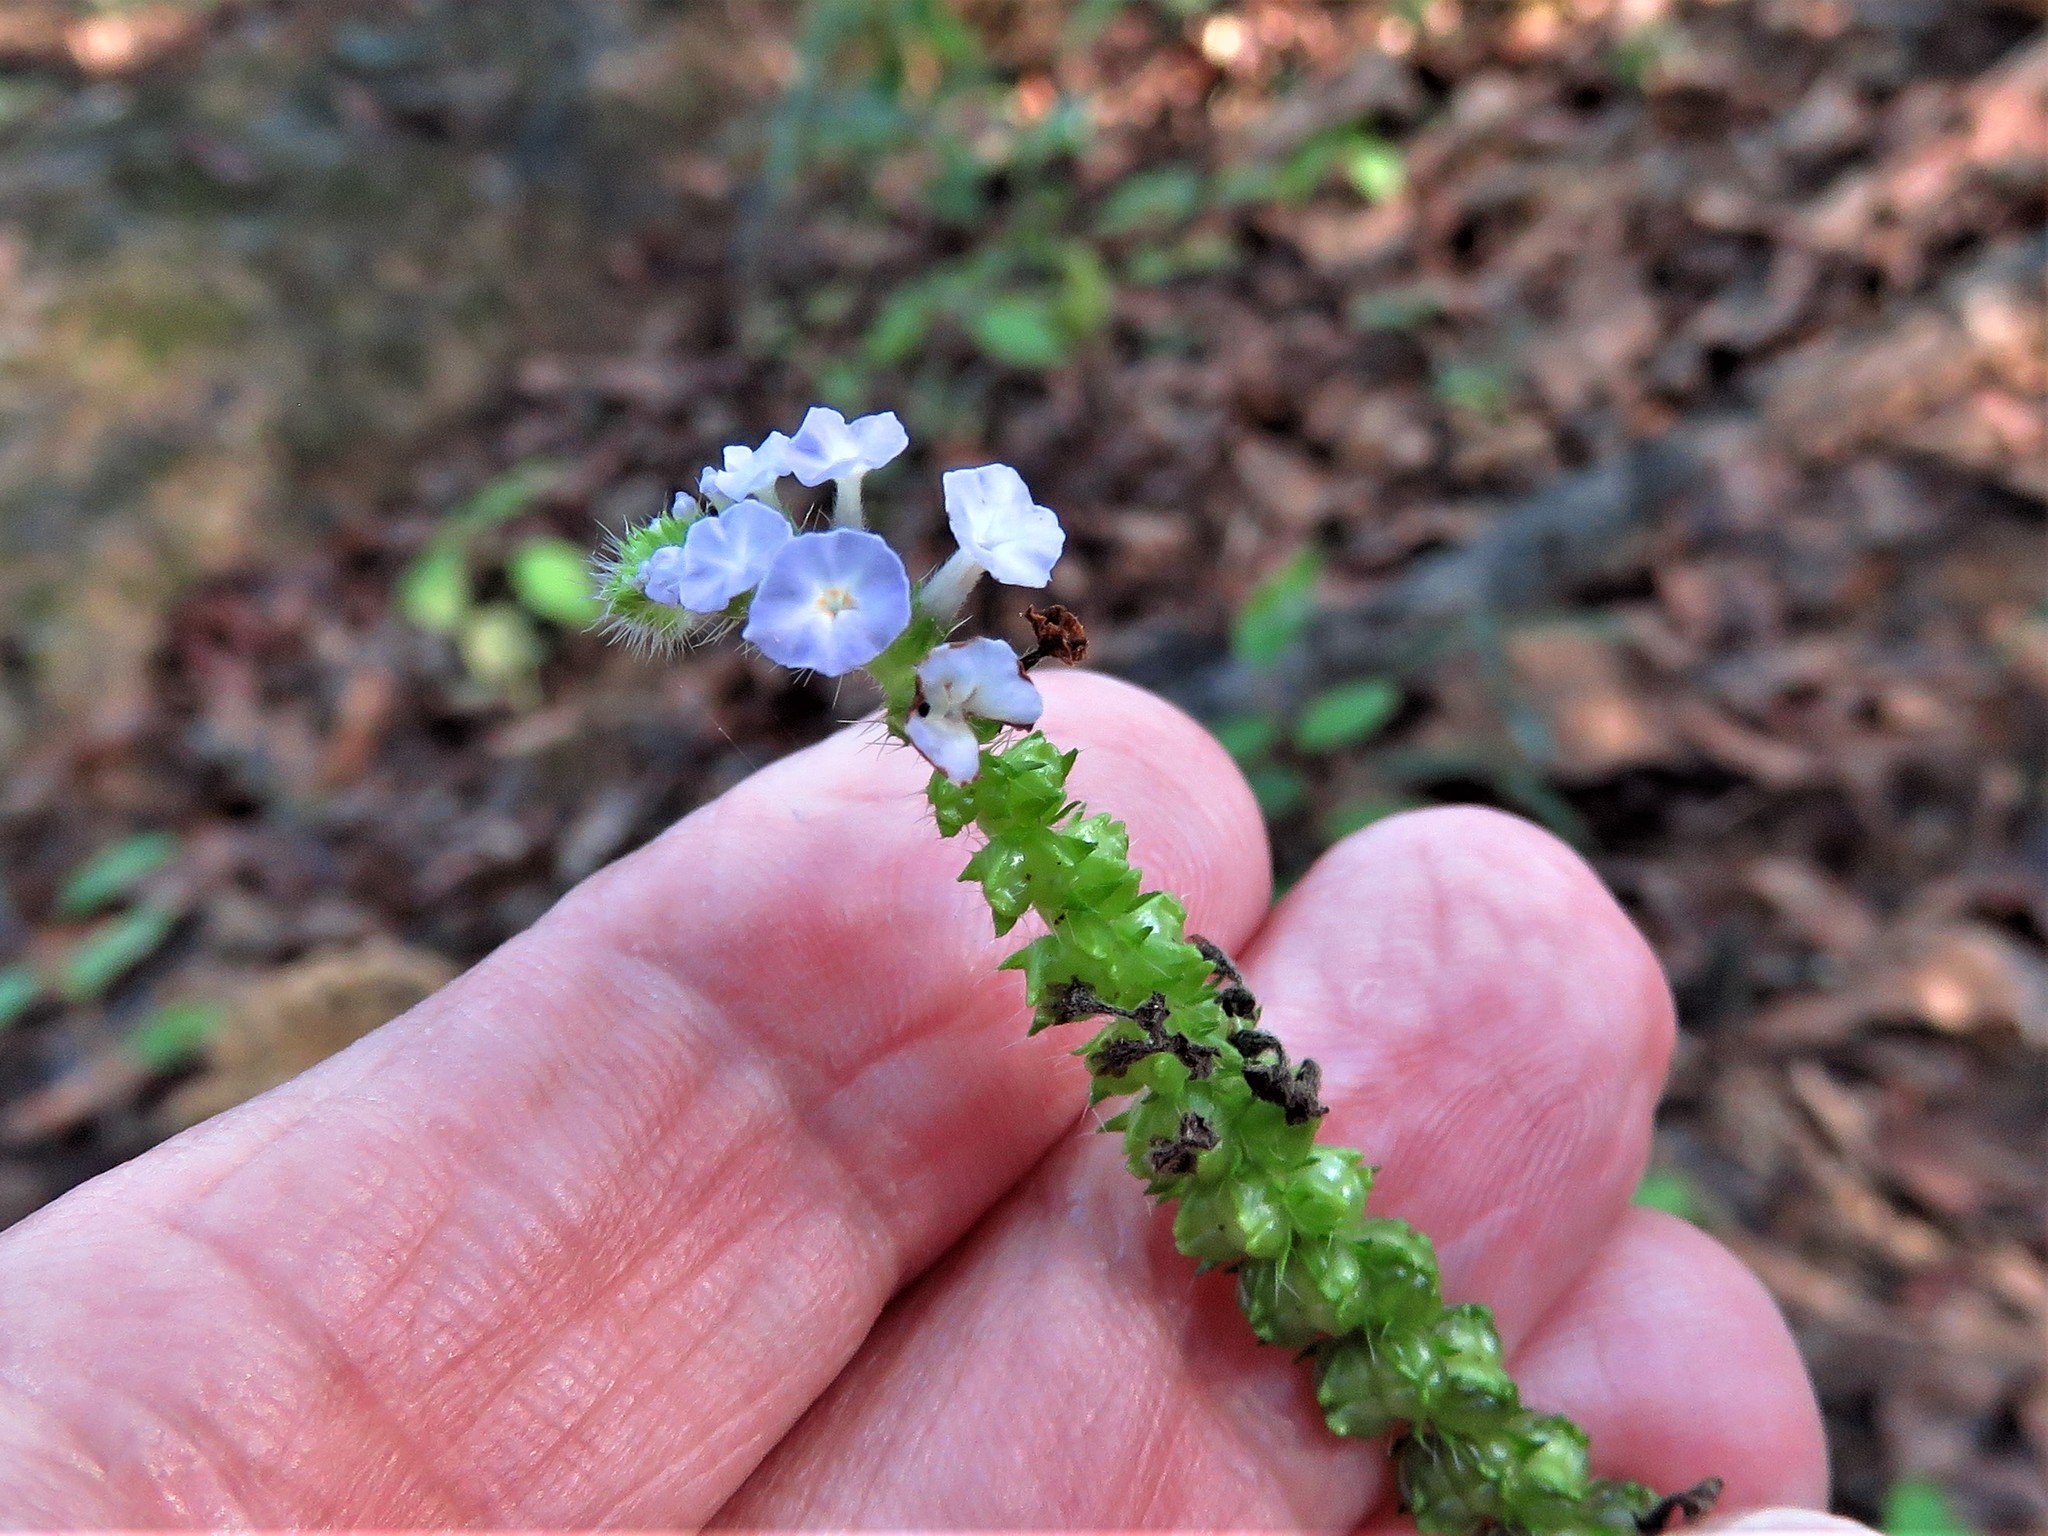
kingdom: Plantae
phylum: Tracheophyta
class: Magnoliopsida
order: Boraginales
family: Heliotropiaceae
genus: Heliotropium
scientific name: Heliotropium indicum
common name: Indian heliotrope
